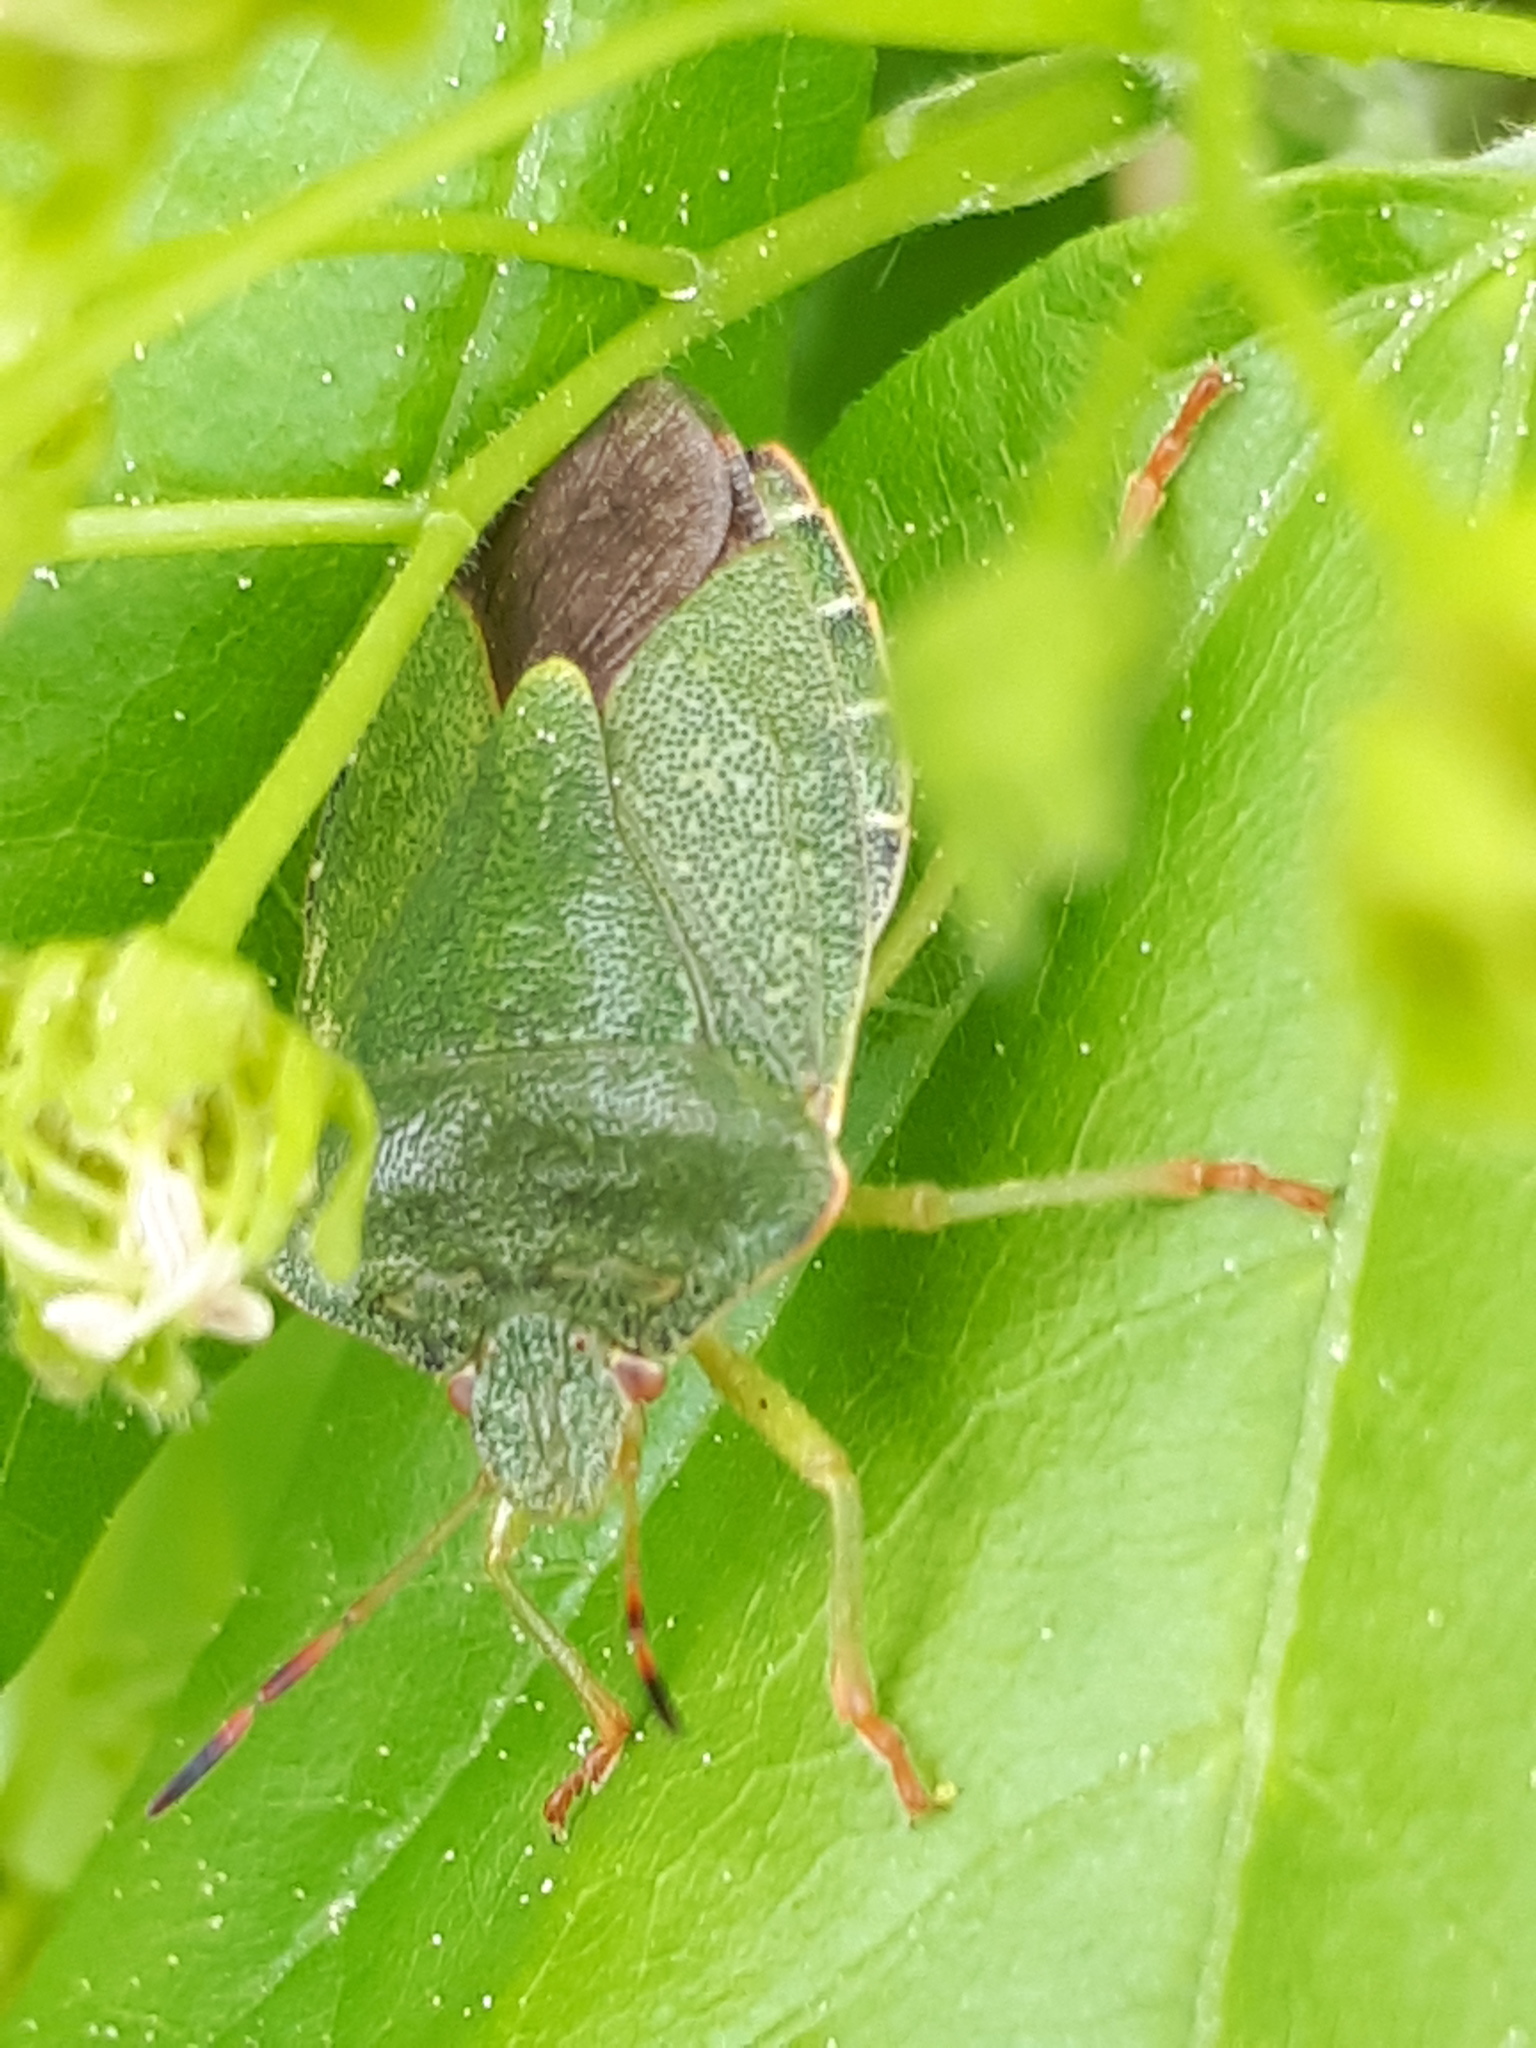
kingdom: Animalia
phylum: Arthropoda
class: Insecta
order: Hemiptera
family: Pentatomidae
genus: Palomena
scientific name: Palomena prasina
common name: Green shieldbug
